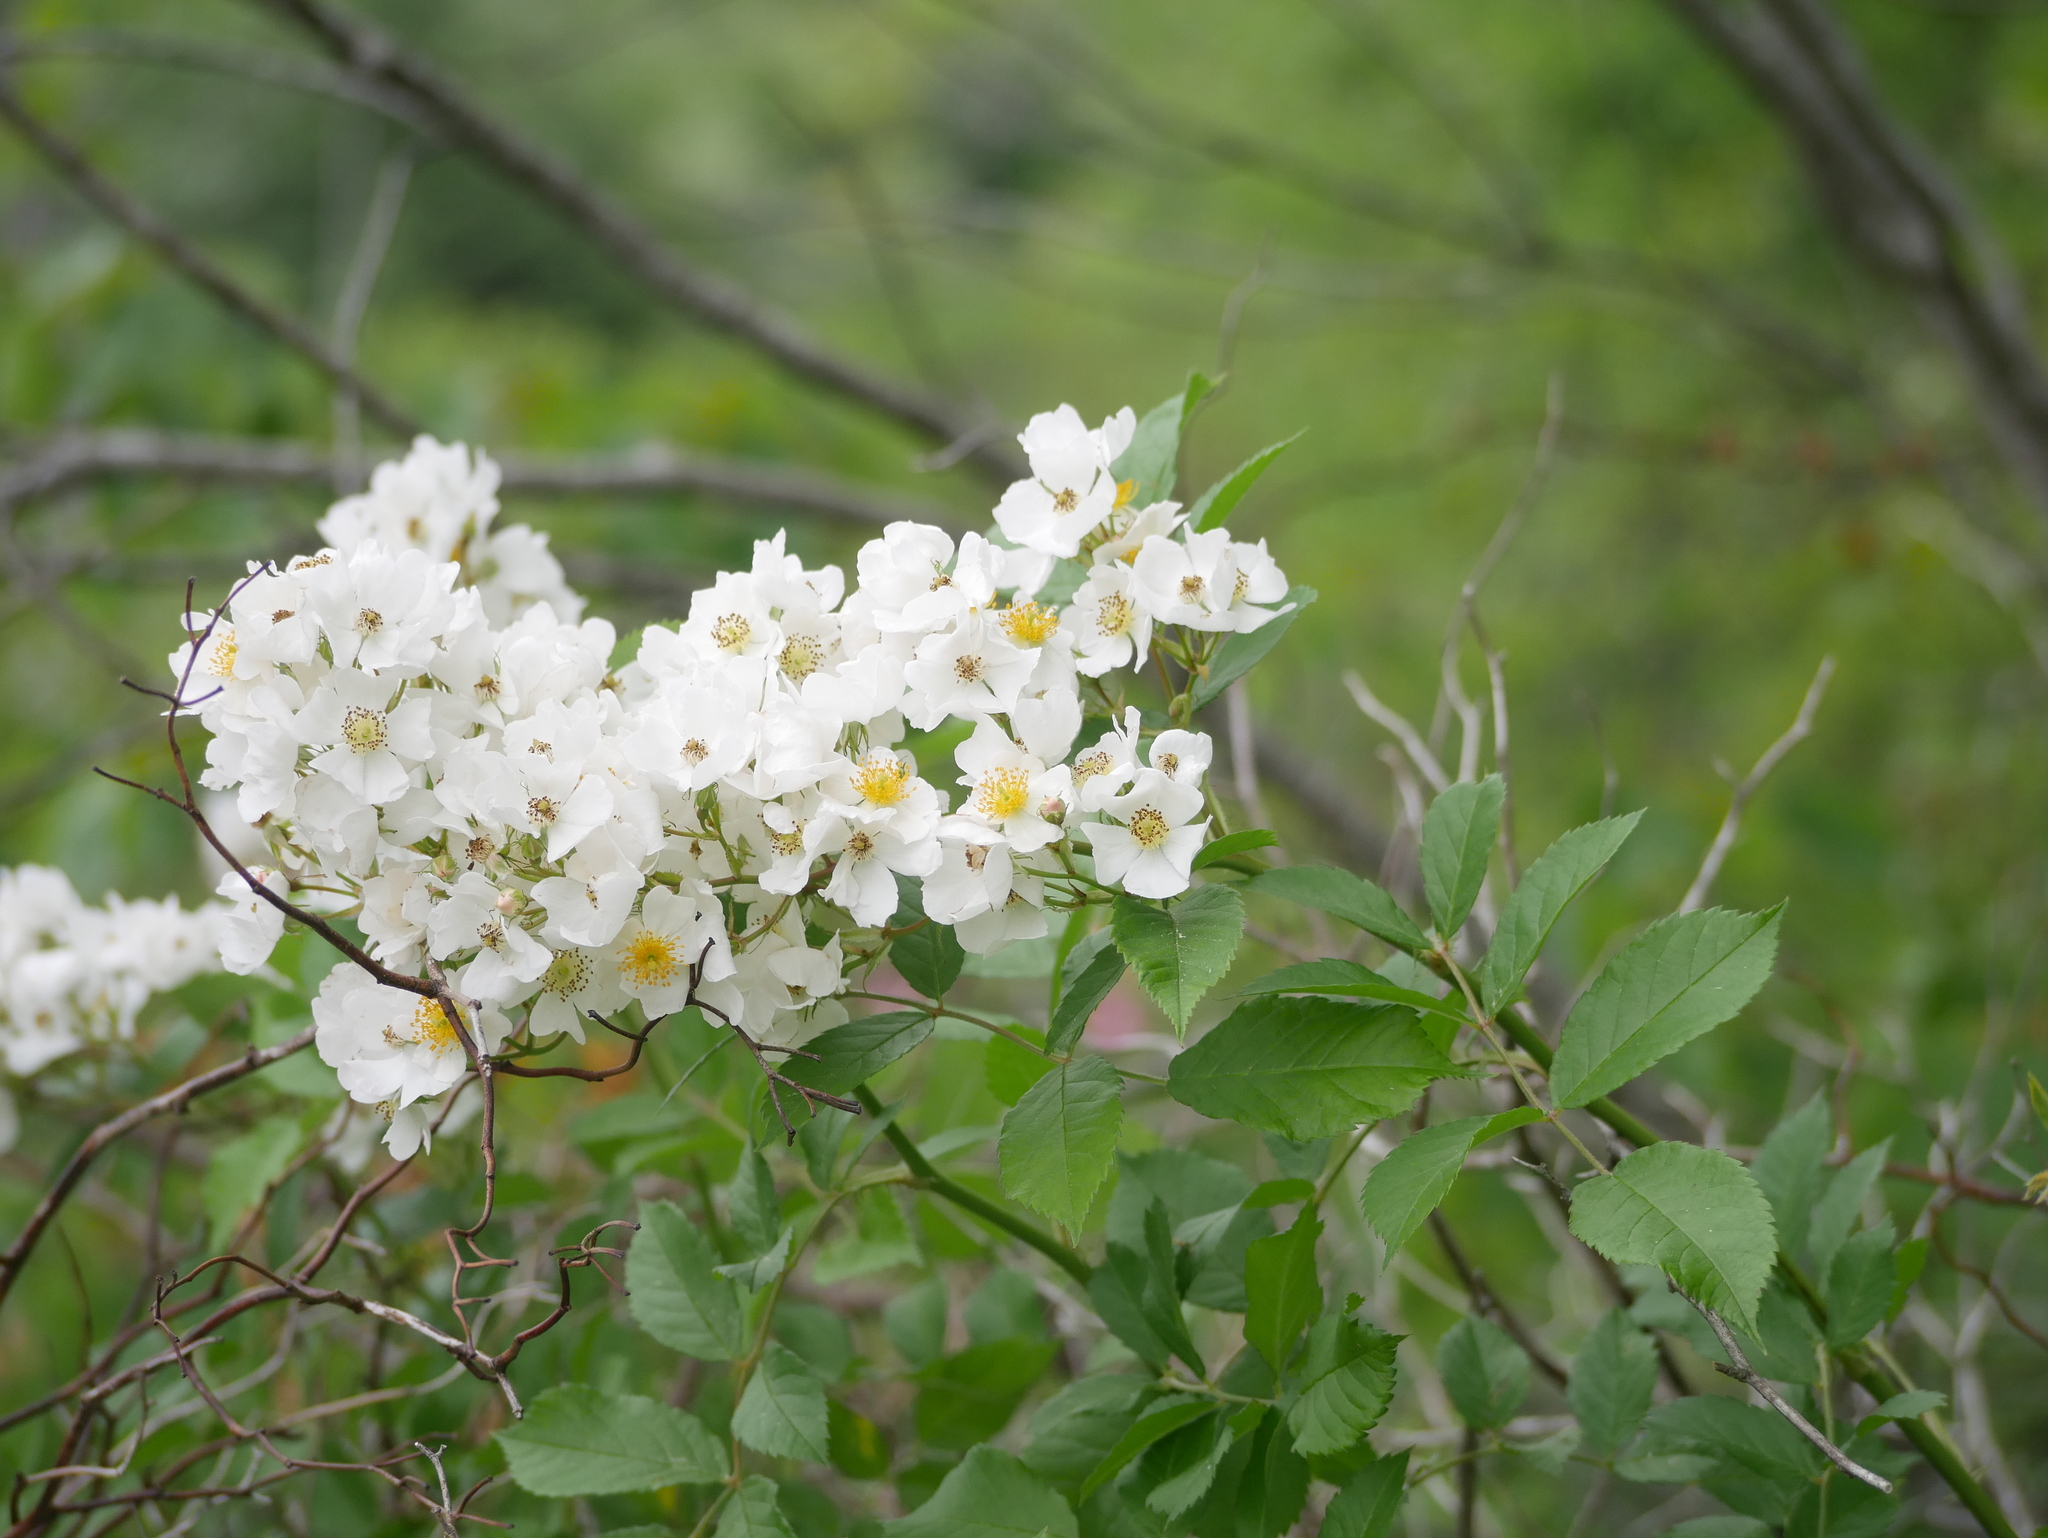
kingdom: Plantae
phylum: Tracheophyta
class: Magnoliopsida
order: Rosales
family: Rosaceae
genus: Rosa
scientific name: Rosa multiflora
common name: Multiflora rose
